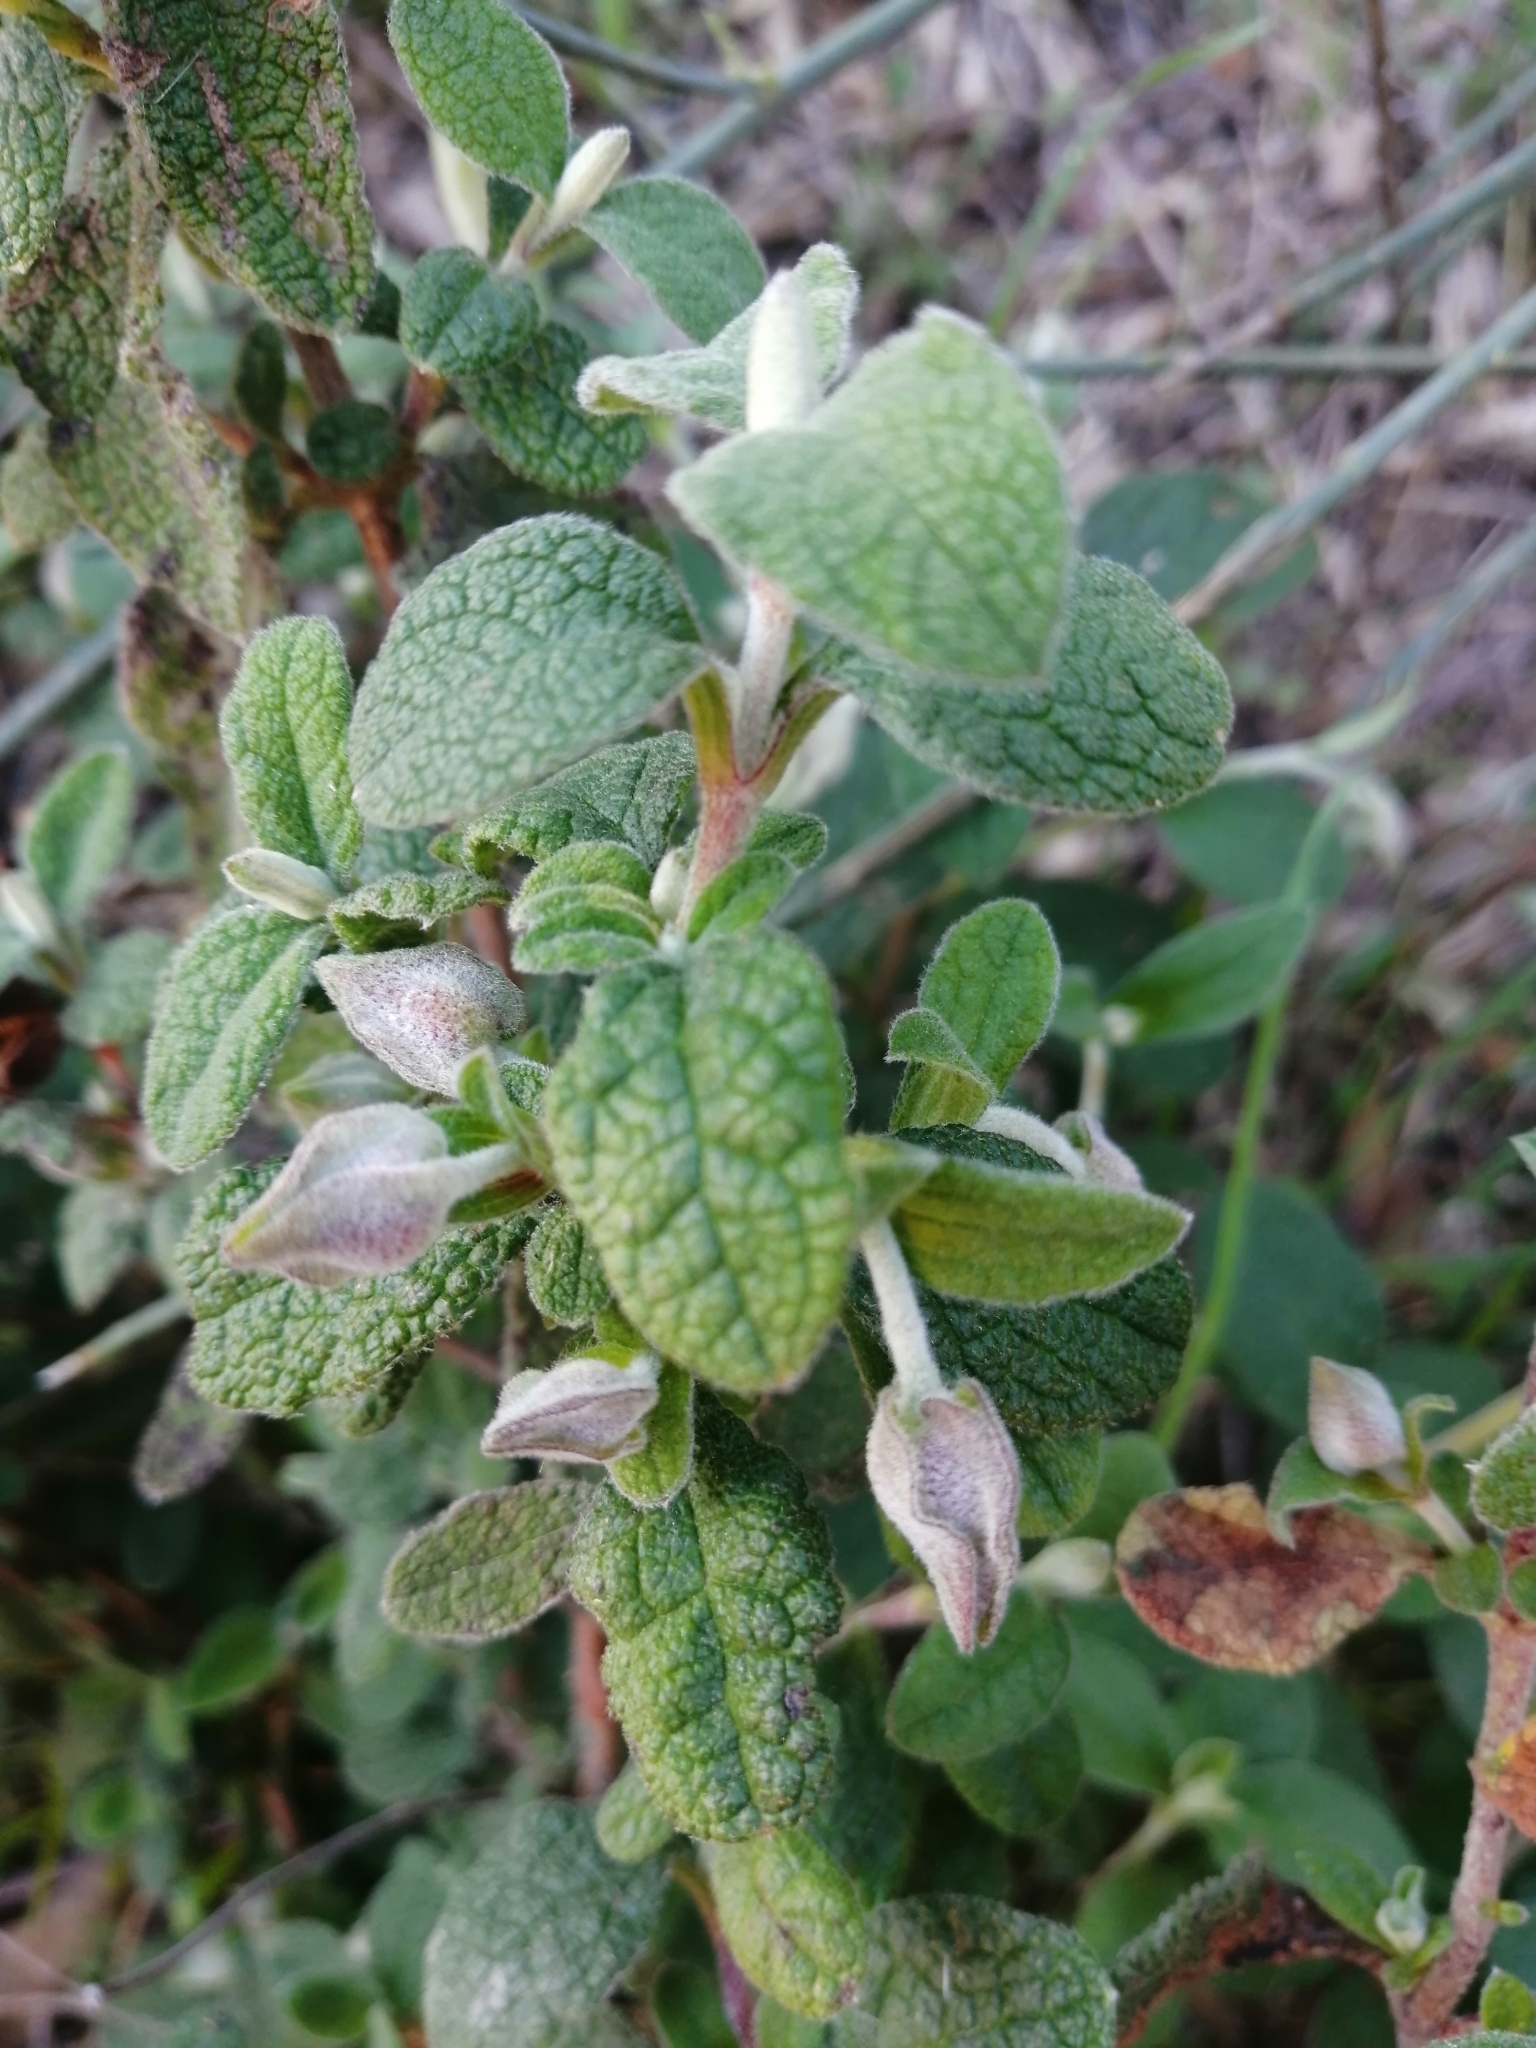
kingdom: Plantae
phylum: Tracheophyta
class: Magnoliopsida
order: Malvales
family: Cistaceae
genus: Cistus
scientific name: Cistus salviifolius
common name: Salvia cistus
